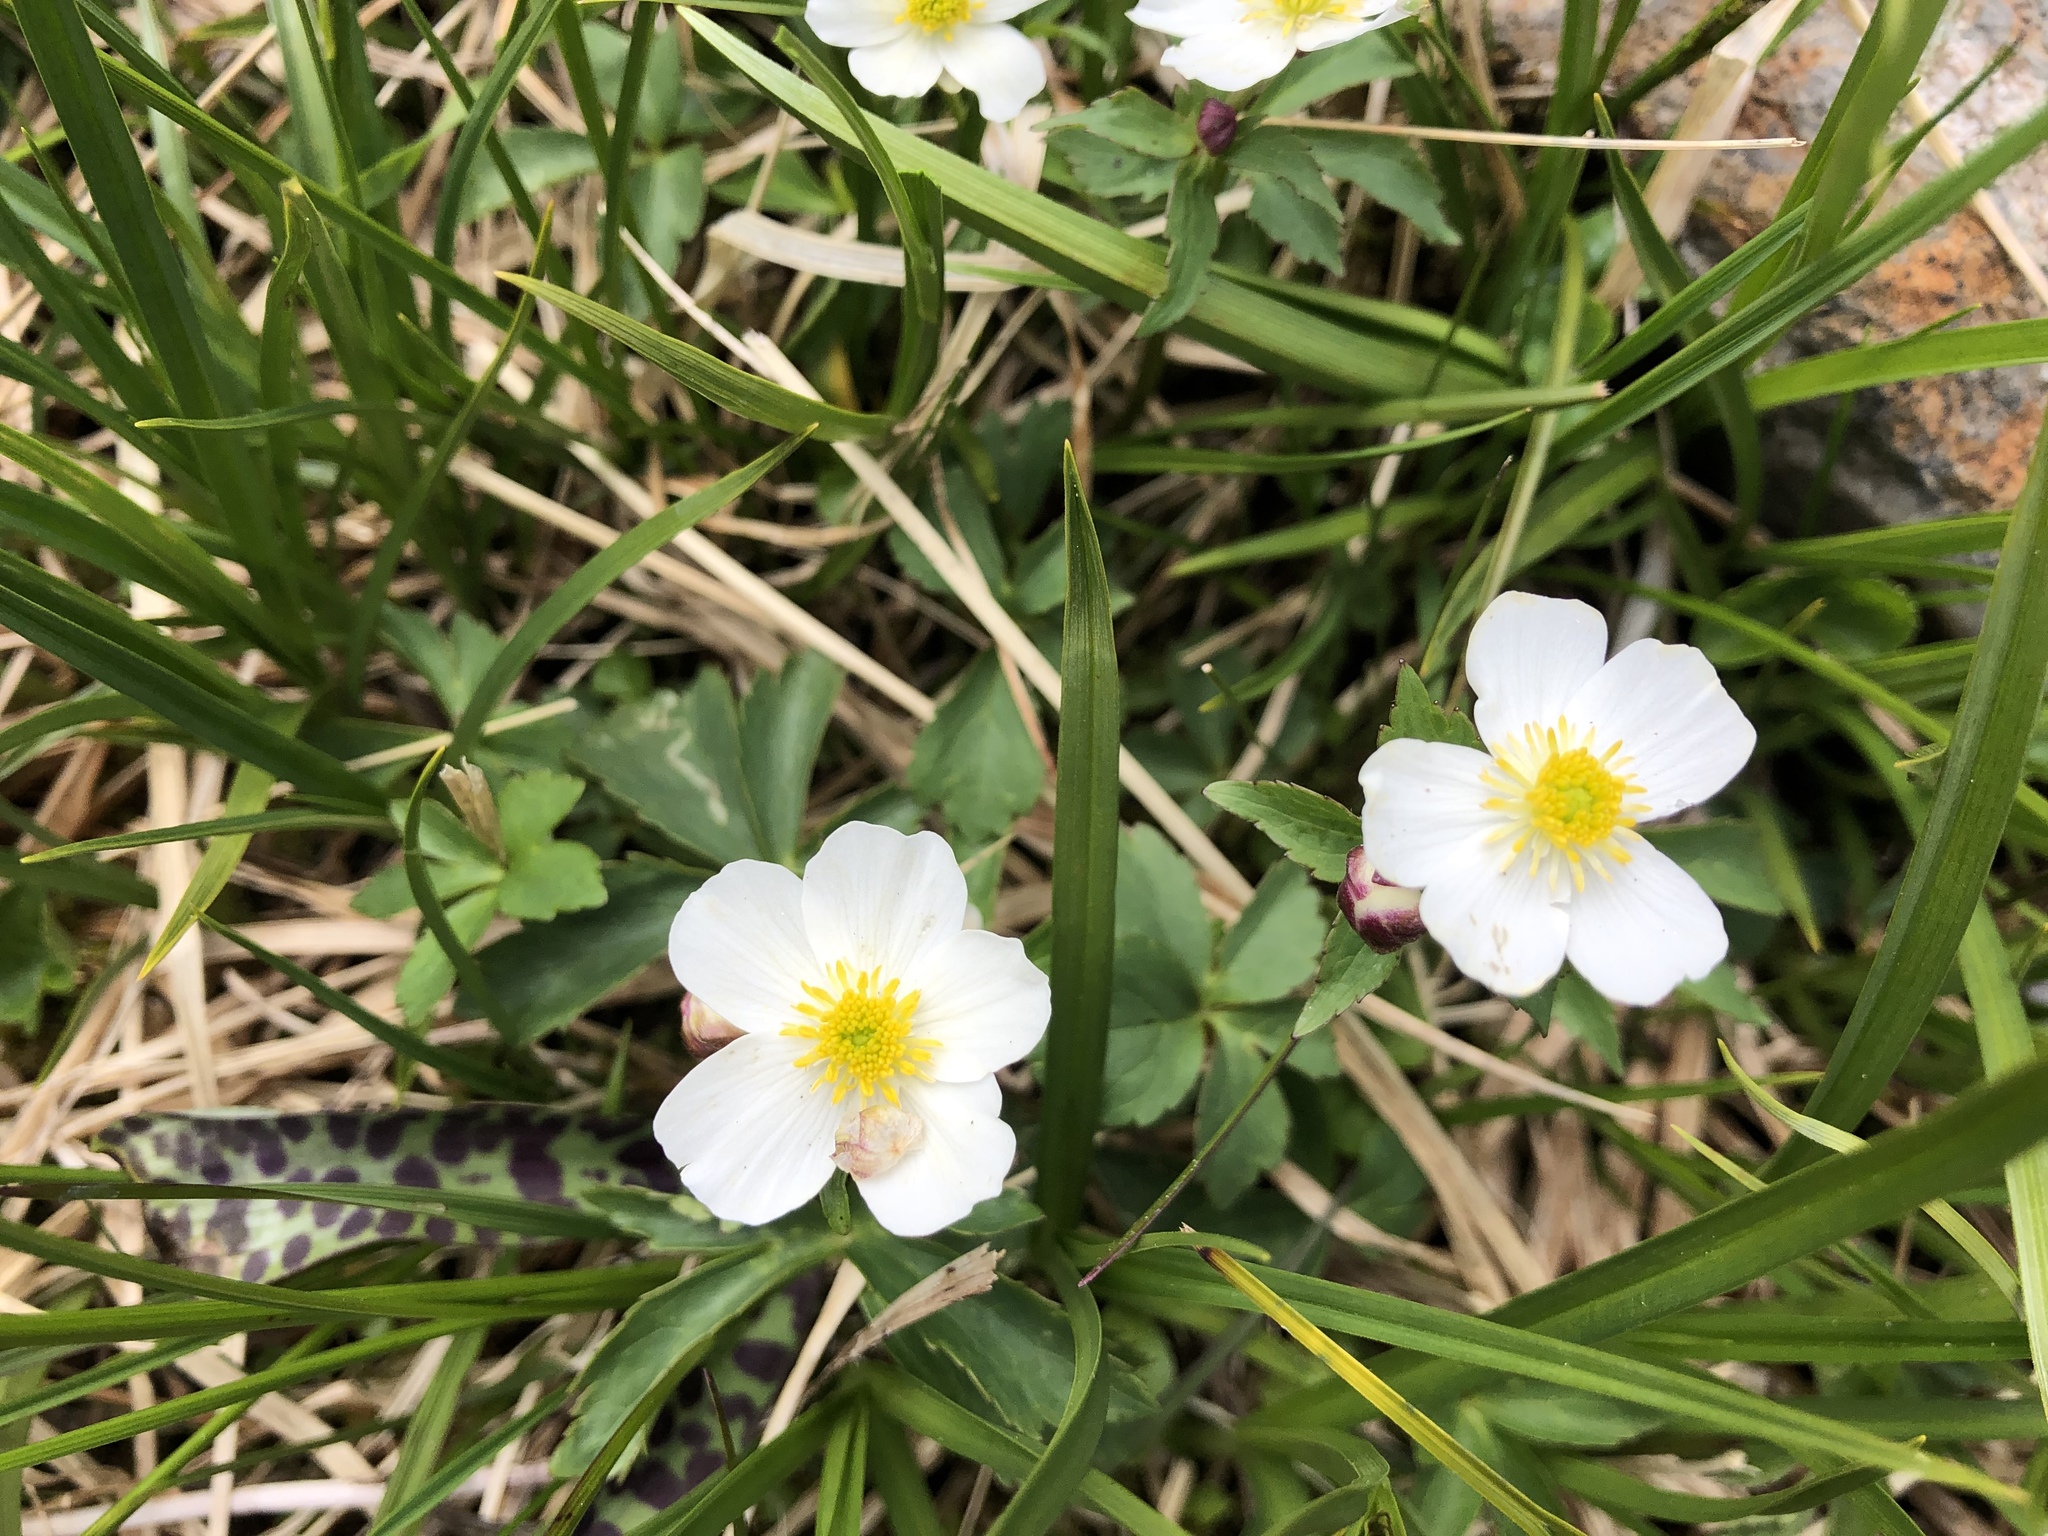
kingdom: Plantae
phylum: Tracheophyta
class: Magnoliopsida
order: Ranunculales
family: Ranunculaceae
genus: Ranunculus
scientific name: Ranunculus aconitifolius
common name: Aconite-leaved buttercup
